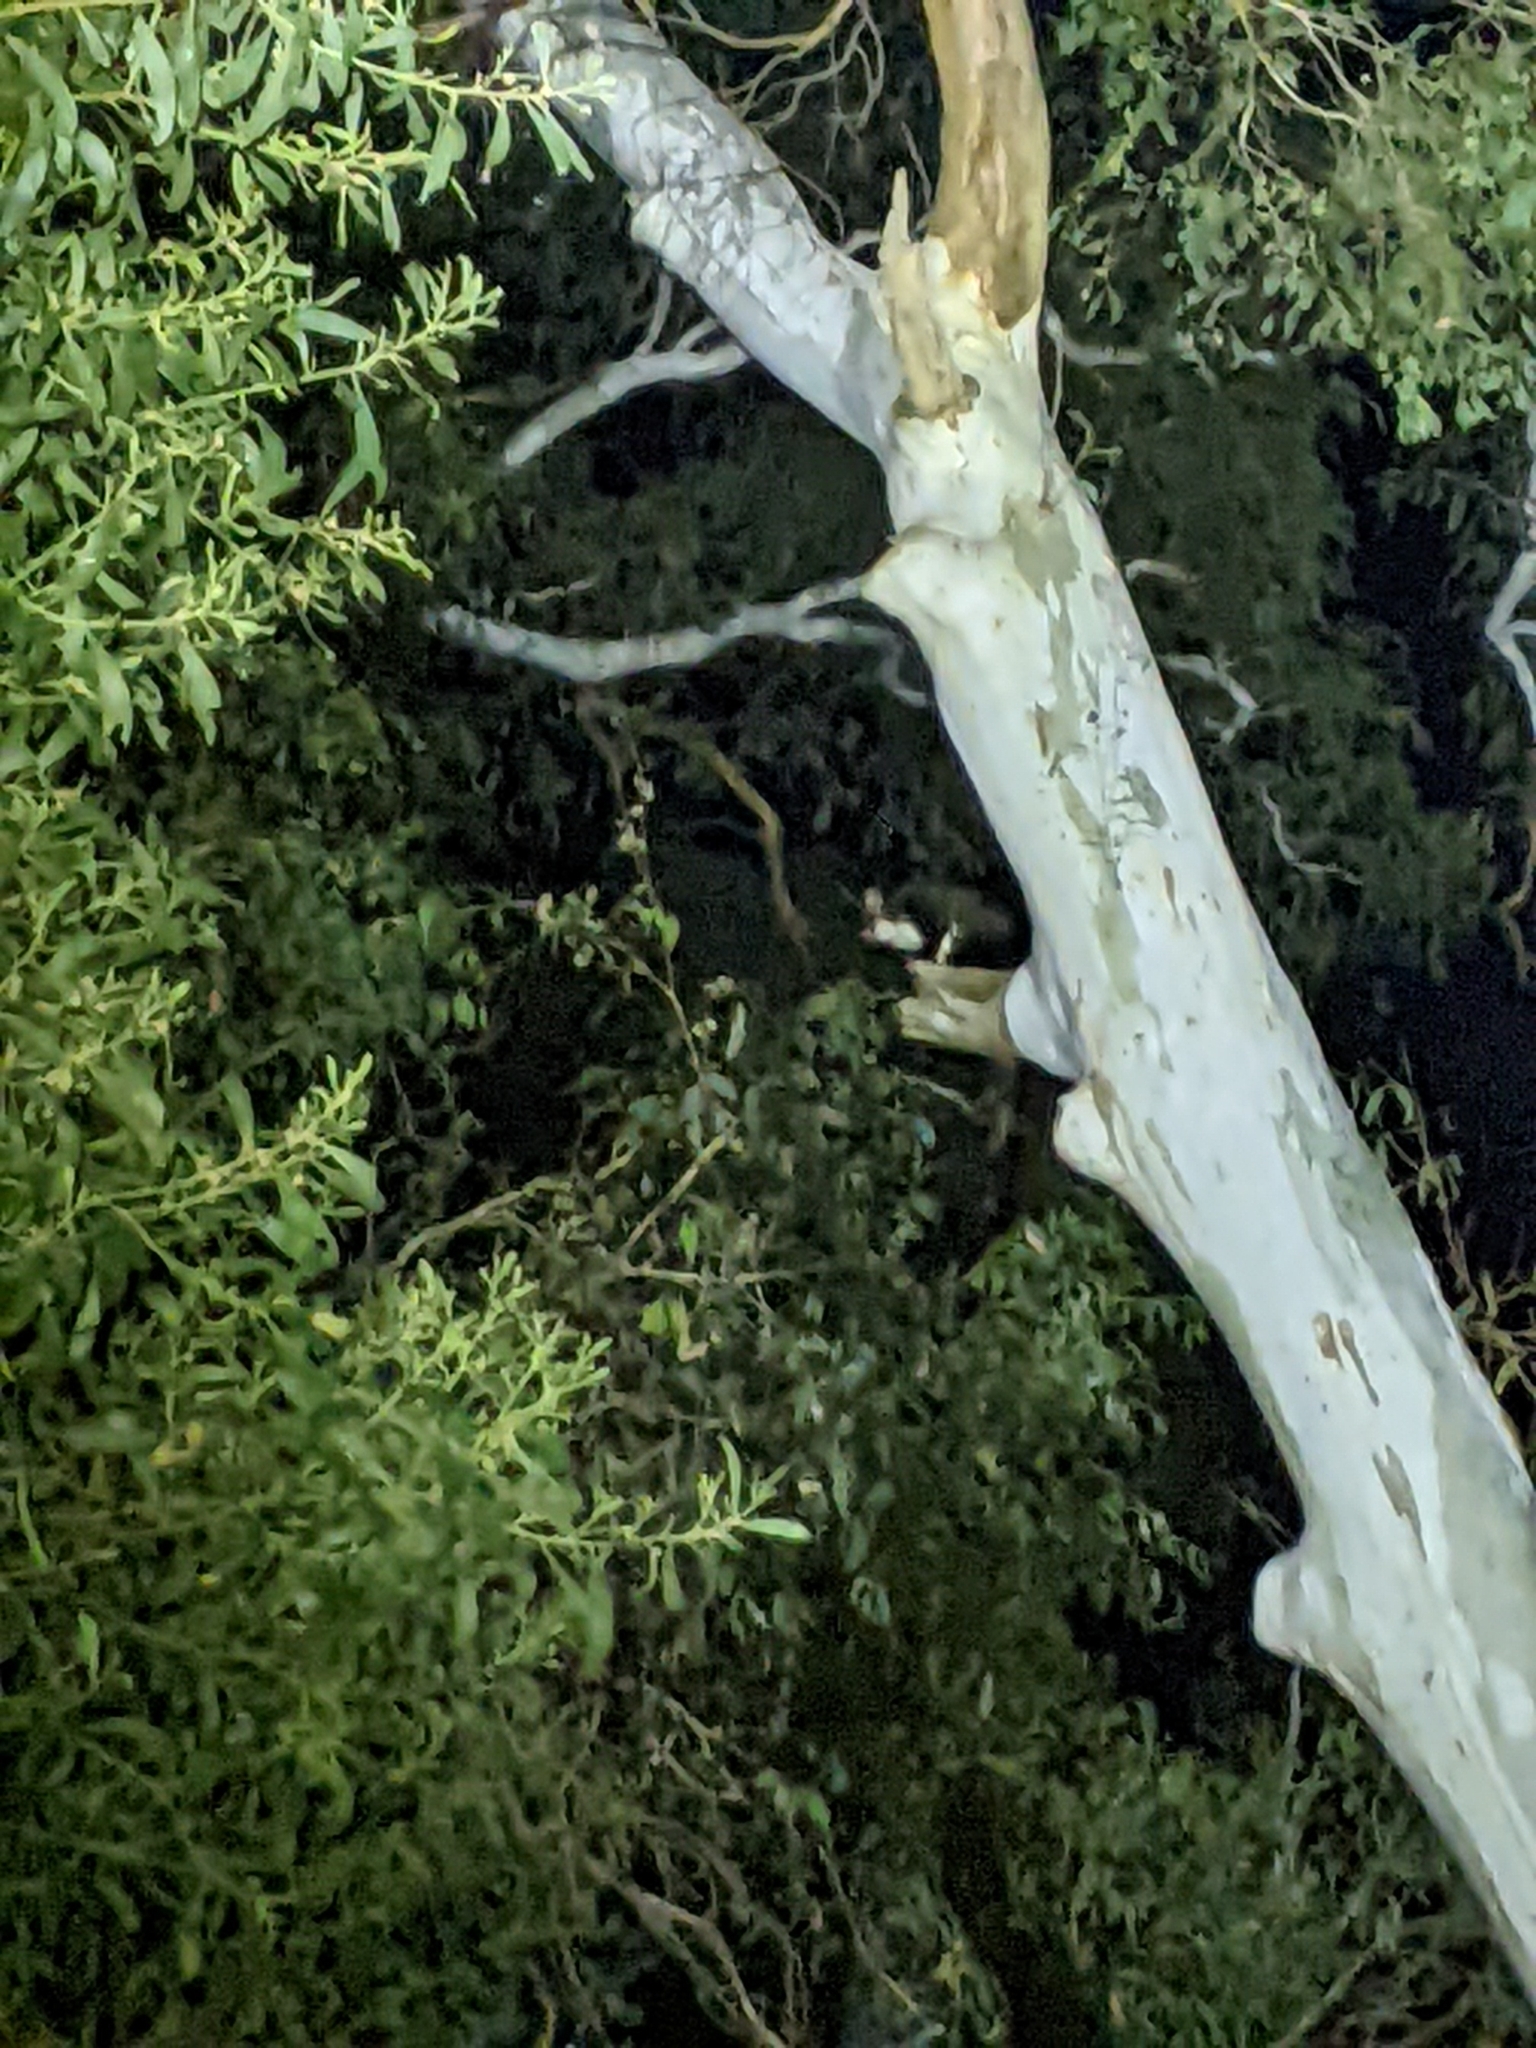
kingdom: Animalia
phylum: Chordata
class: Mammalia
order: Diprotodontia
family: Pseudocheiridae
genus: Petauroides
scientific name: Petauroides volans
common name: Greater glider
